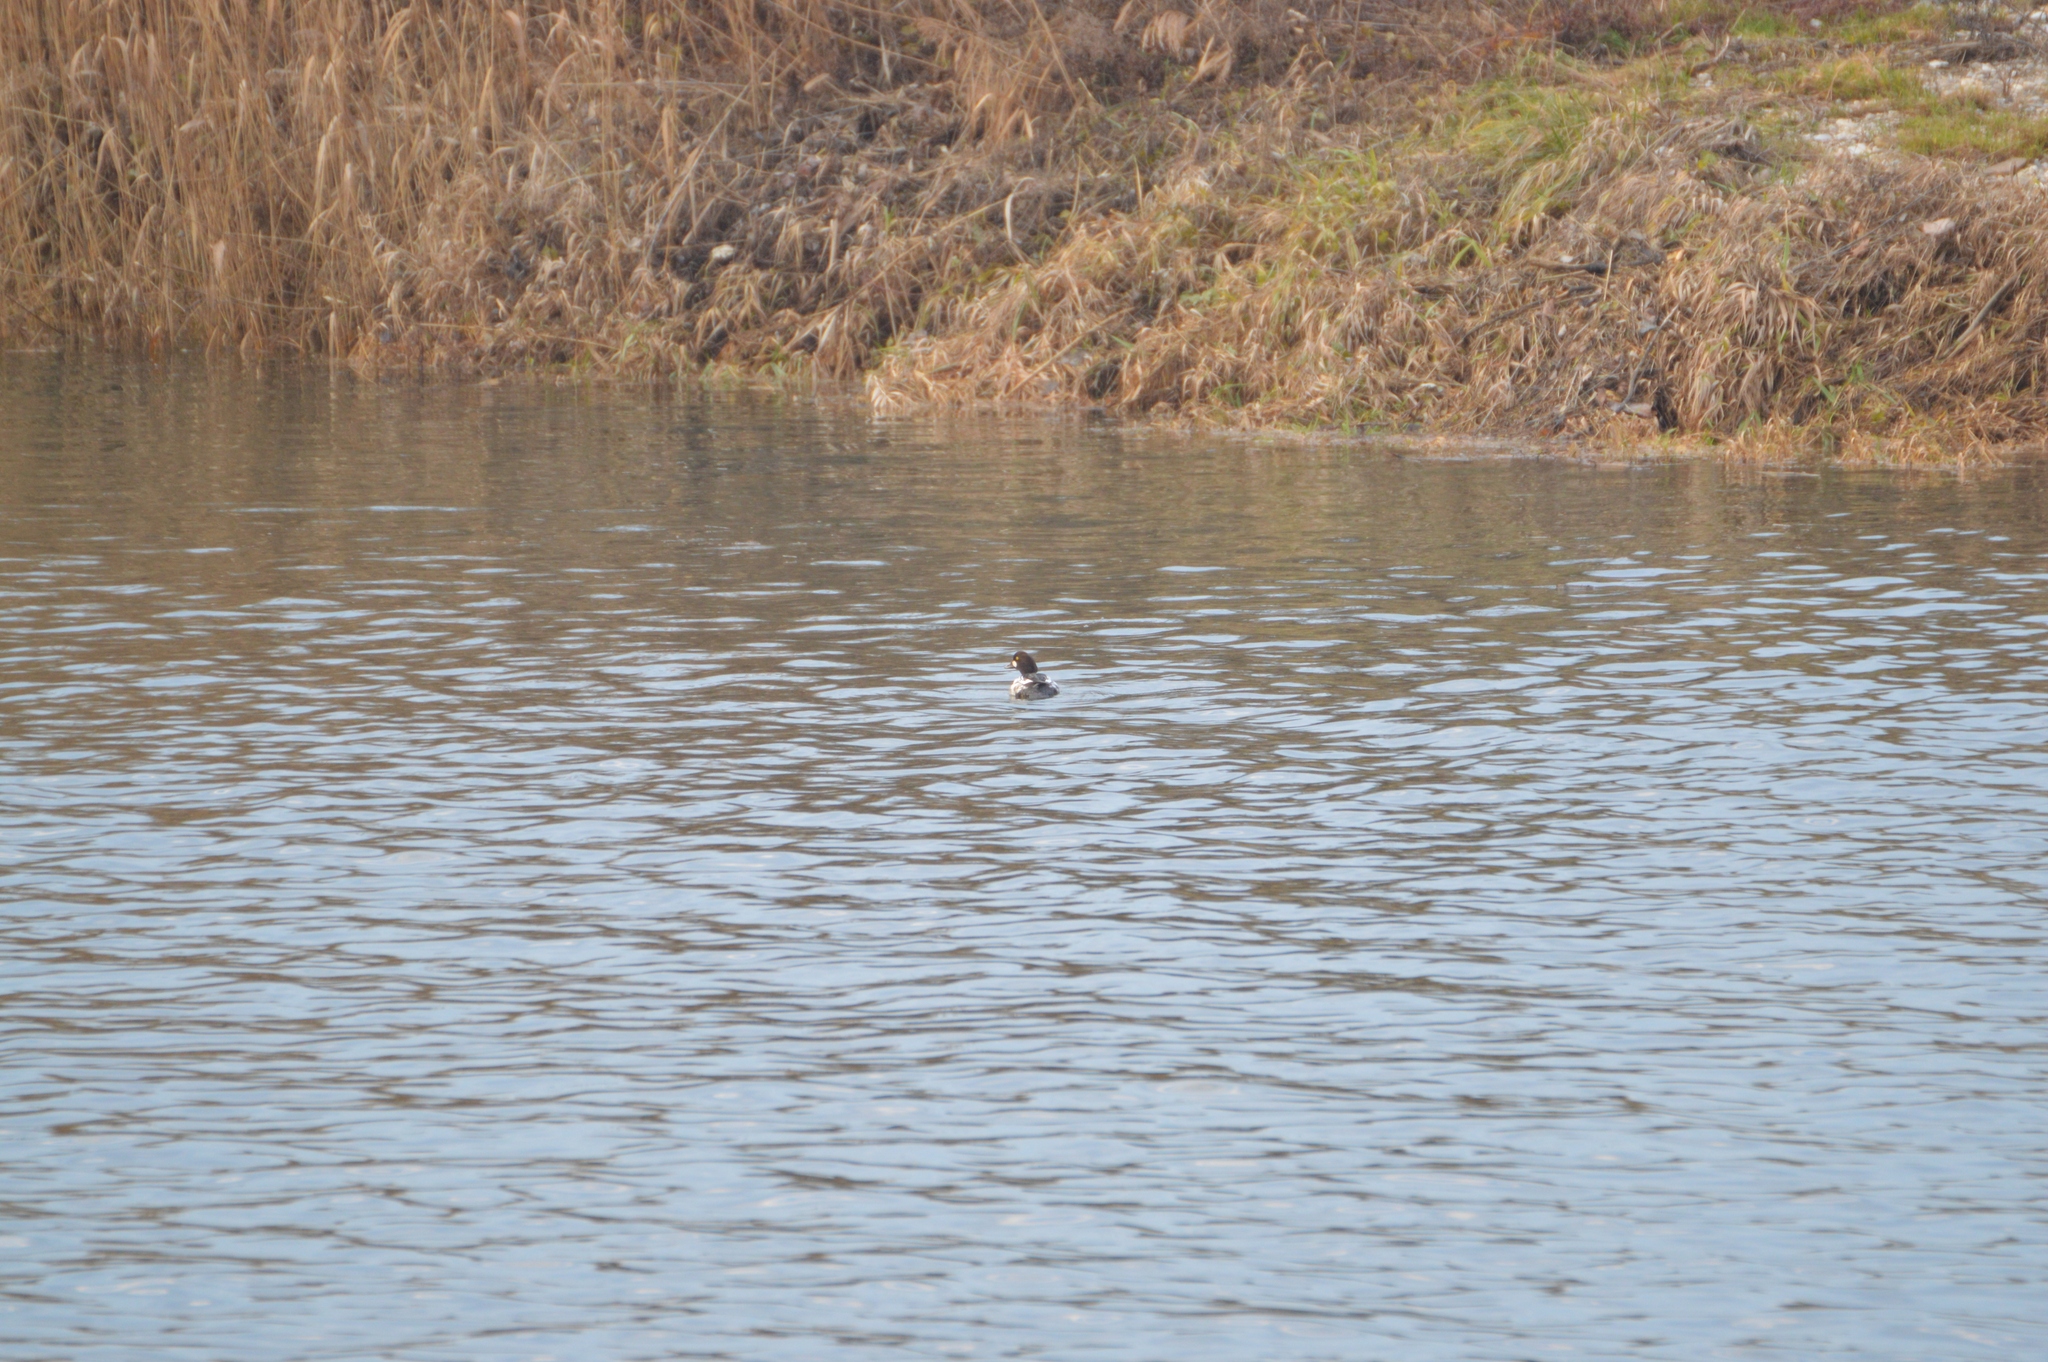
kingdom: Animalia
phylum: Chordata
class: Aves
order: Anseriformes
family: Anatidae
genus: Bucephala
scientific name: Bucephala clangula
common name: Common goldeneye
